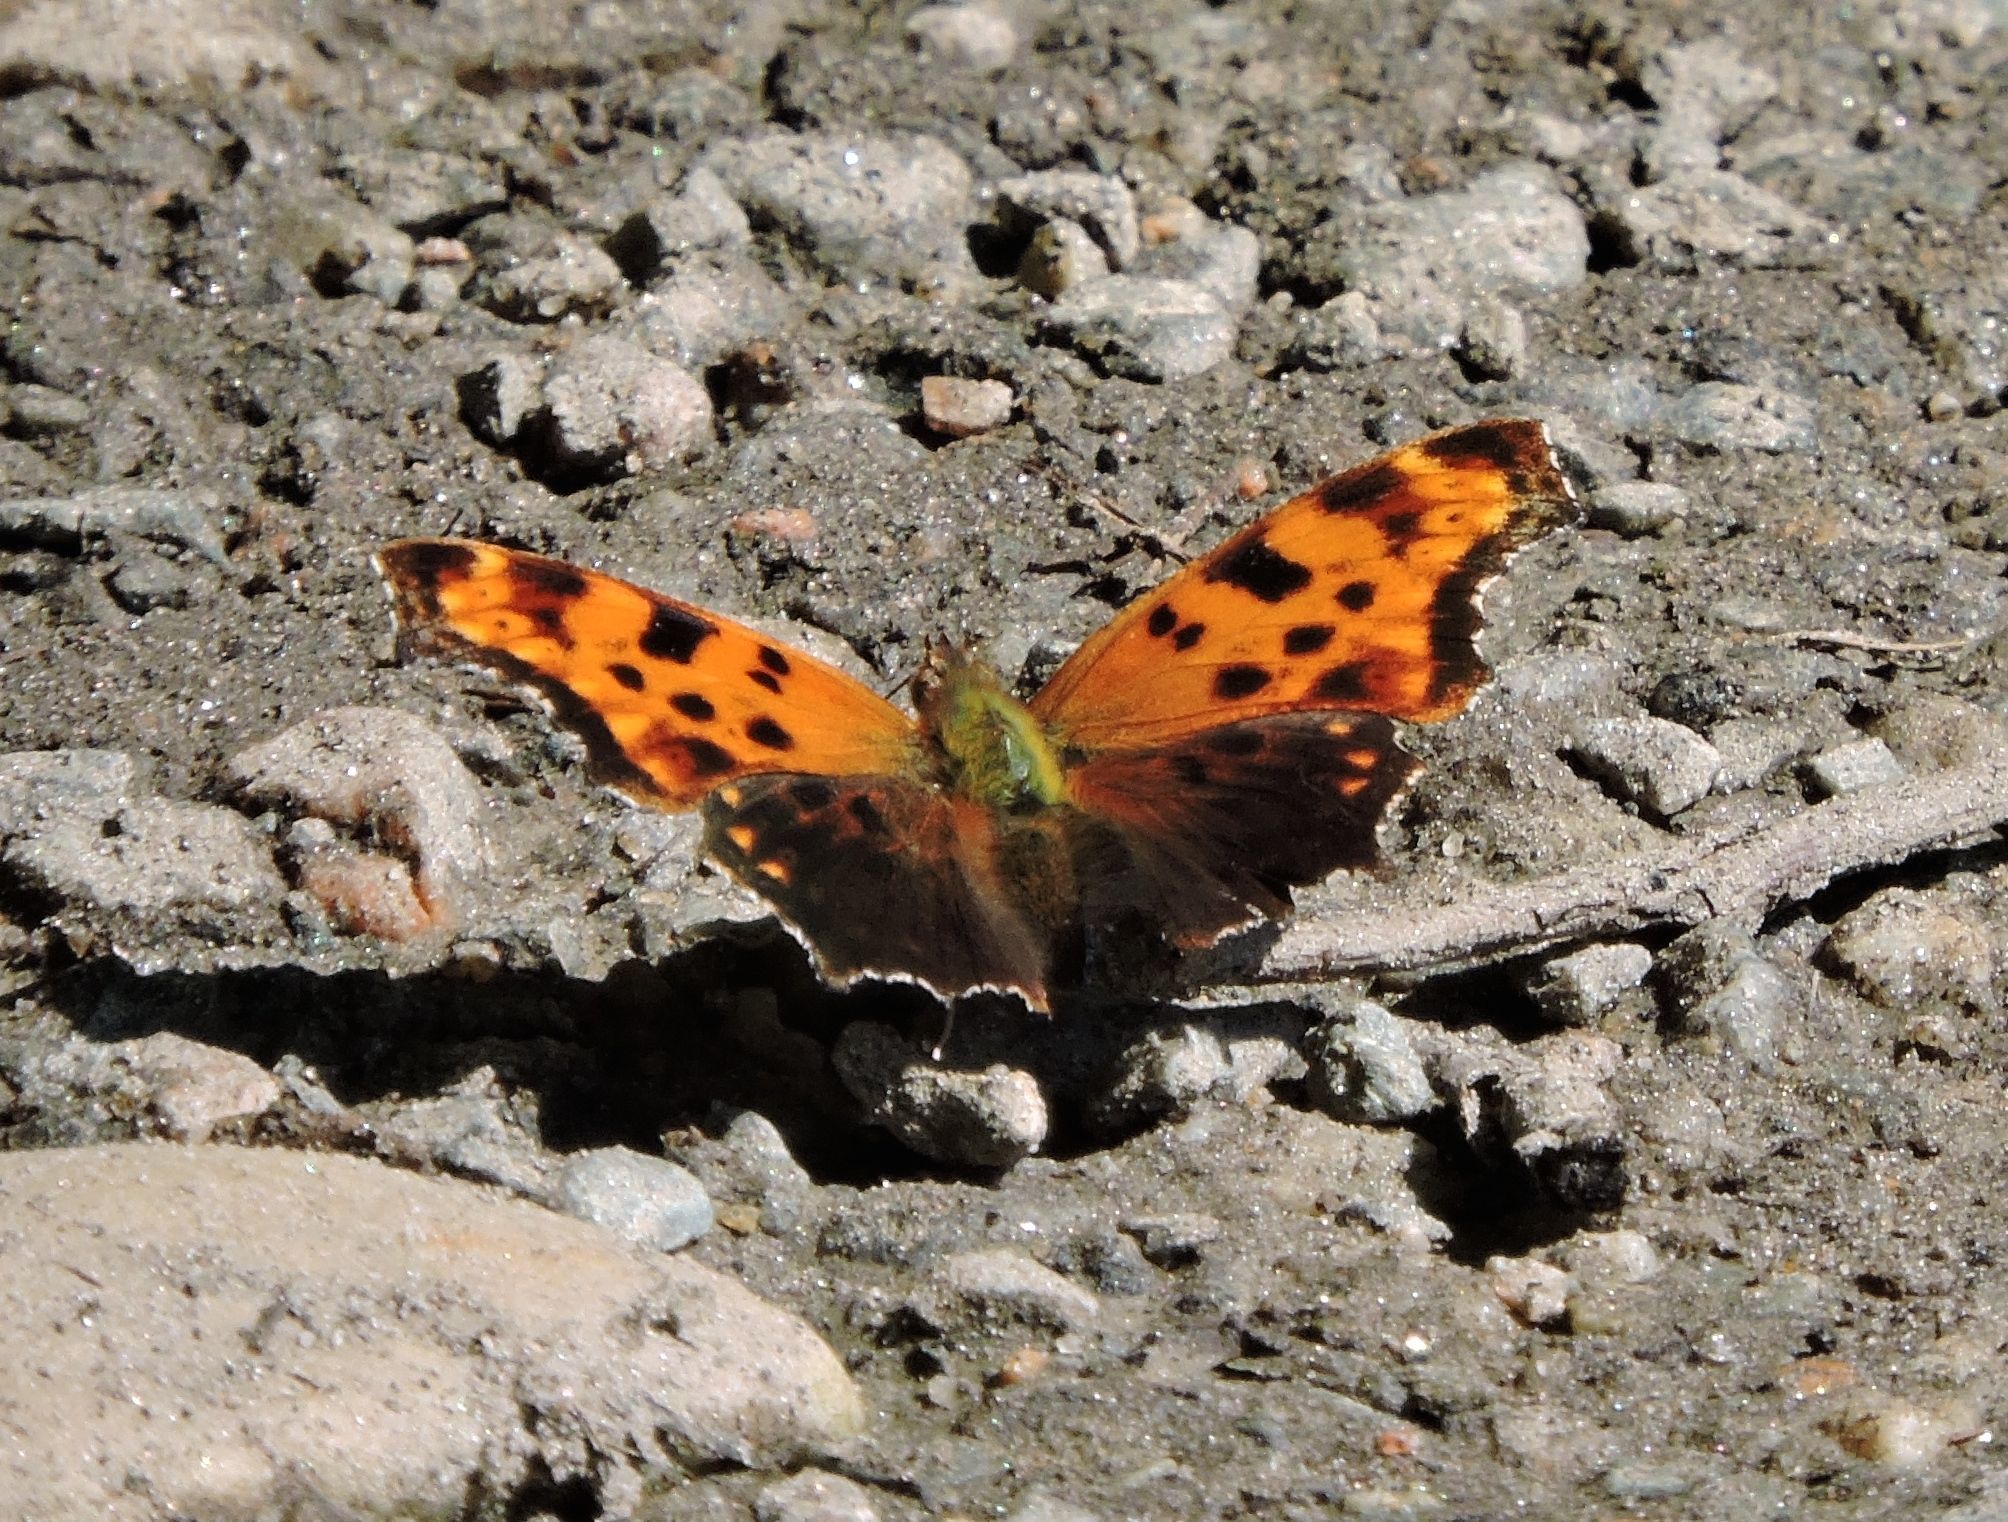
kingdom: Animalia
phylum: Arthropoda
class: Insecta
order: Lepidoptera
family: Nymphalidae
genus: Polygonia
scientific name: Polygonia comma
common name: Eastern comma
